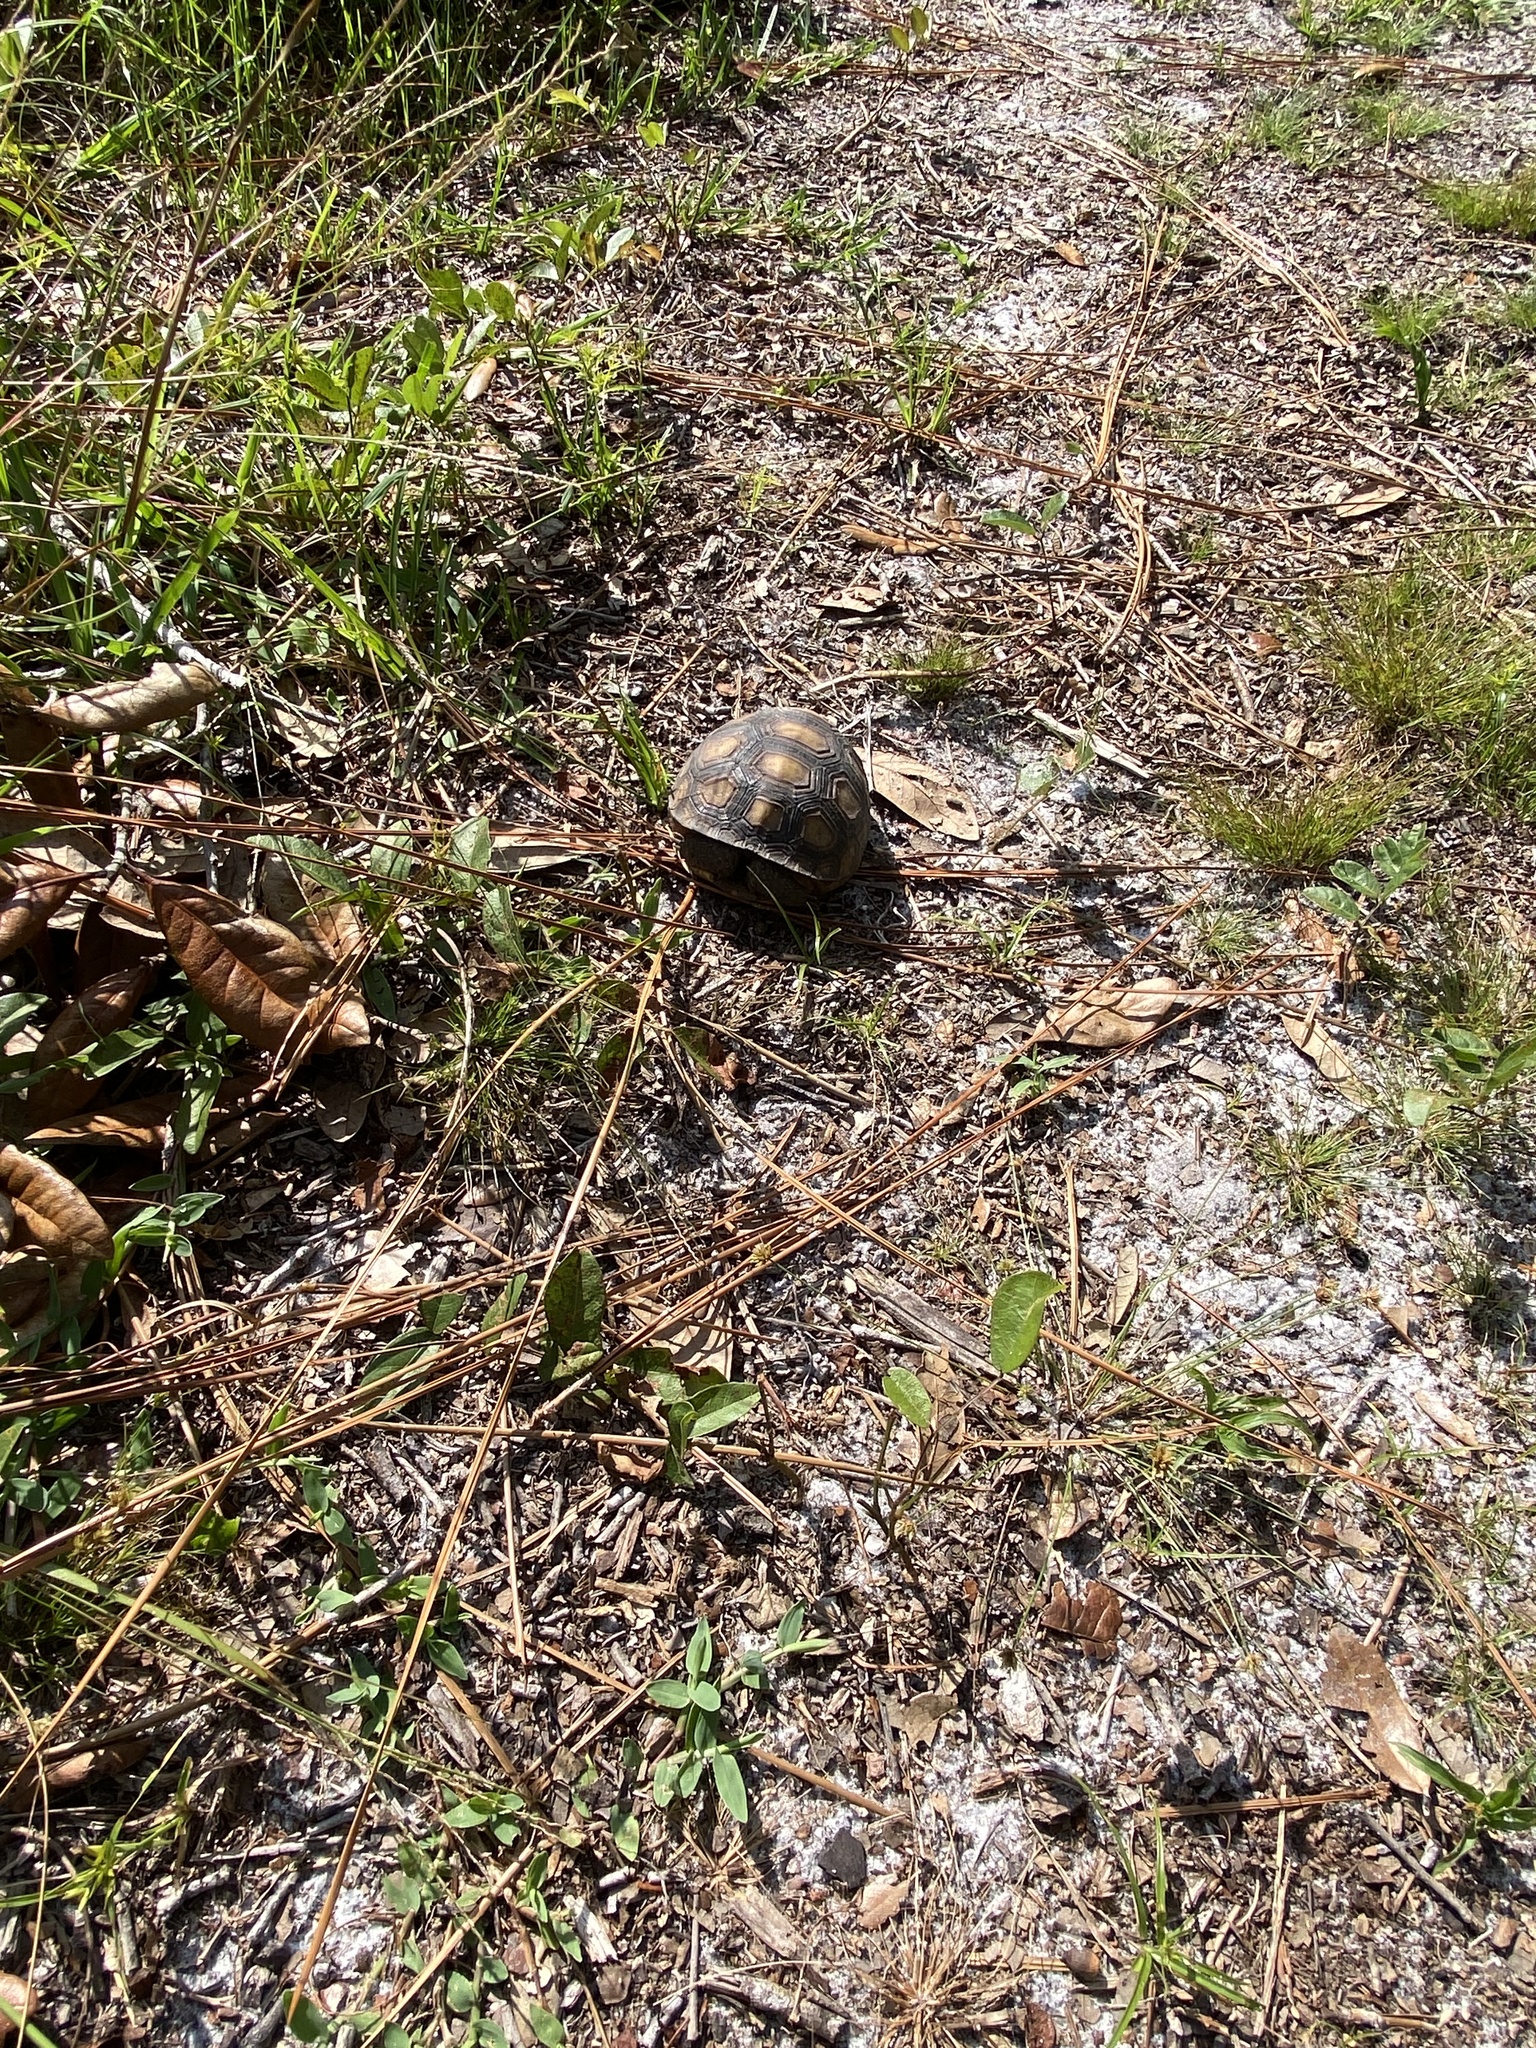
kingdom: Animalia
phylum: Chordata
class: Testudines
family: Testudinidae
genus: Gopherus
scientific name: Gopherus polyphemus
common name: Florida gopher tortoise
